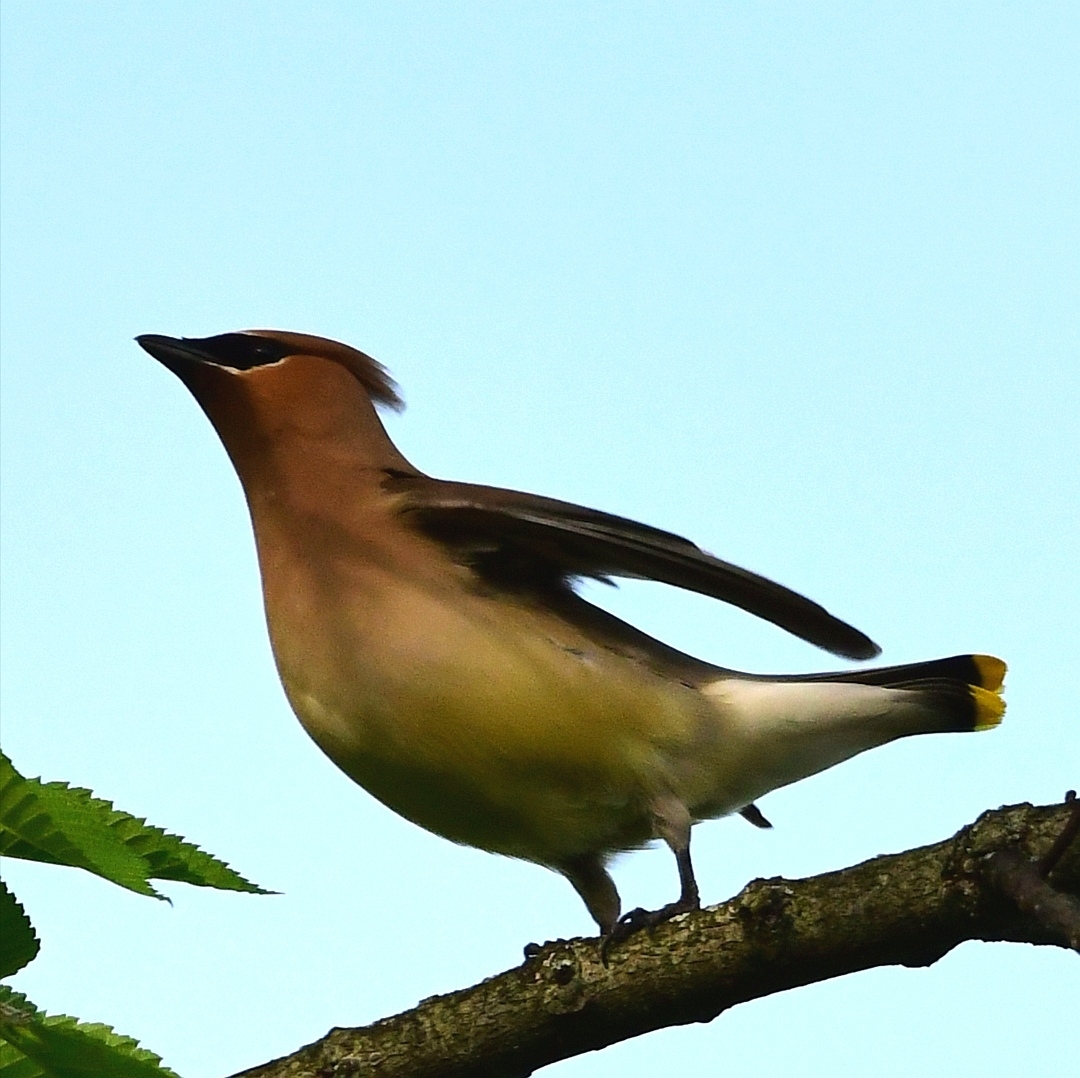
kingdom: Animalia
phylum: Chordata
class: Aves
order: Passeriformes
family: Bombycillidae
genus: Bombycilla
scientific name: Bombycilla cedrorum
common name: Cedar waxwing
